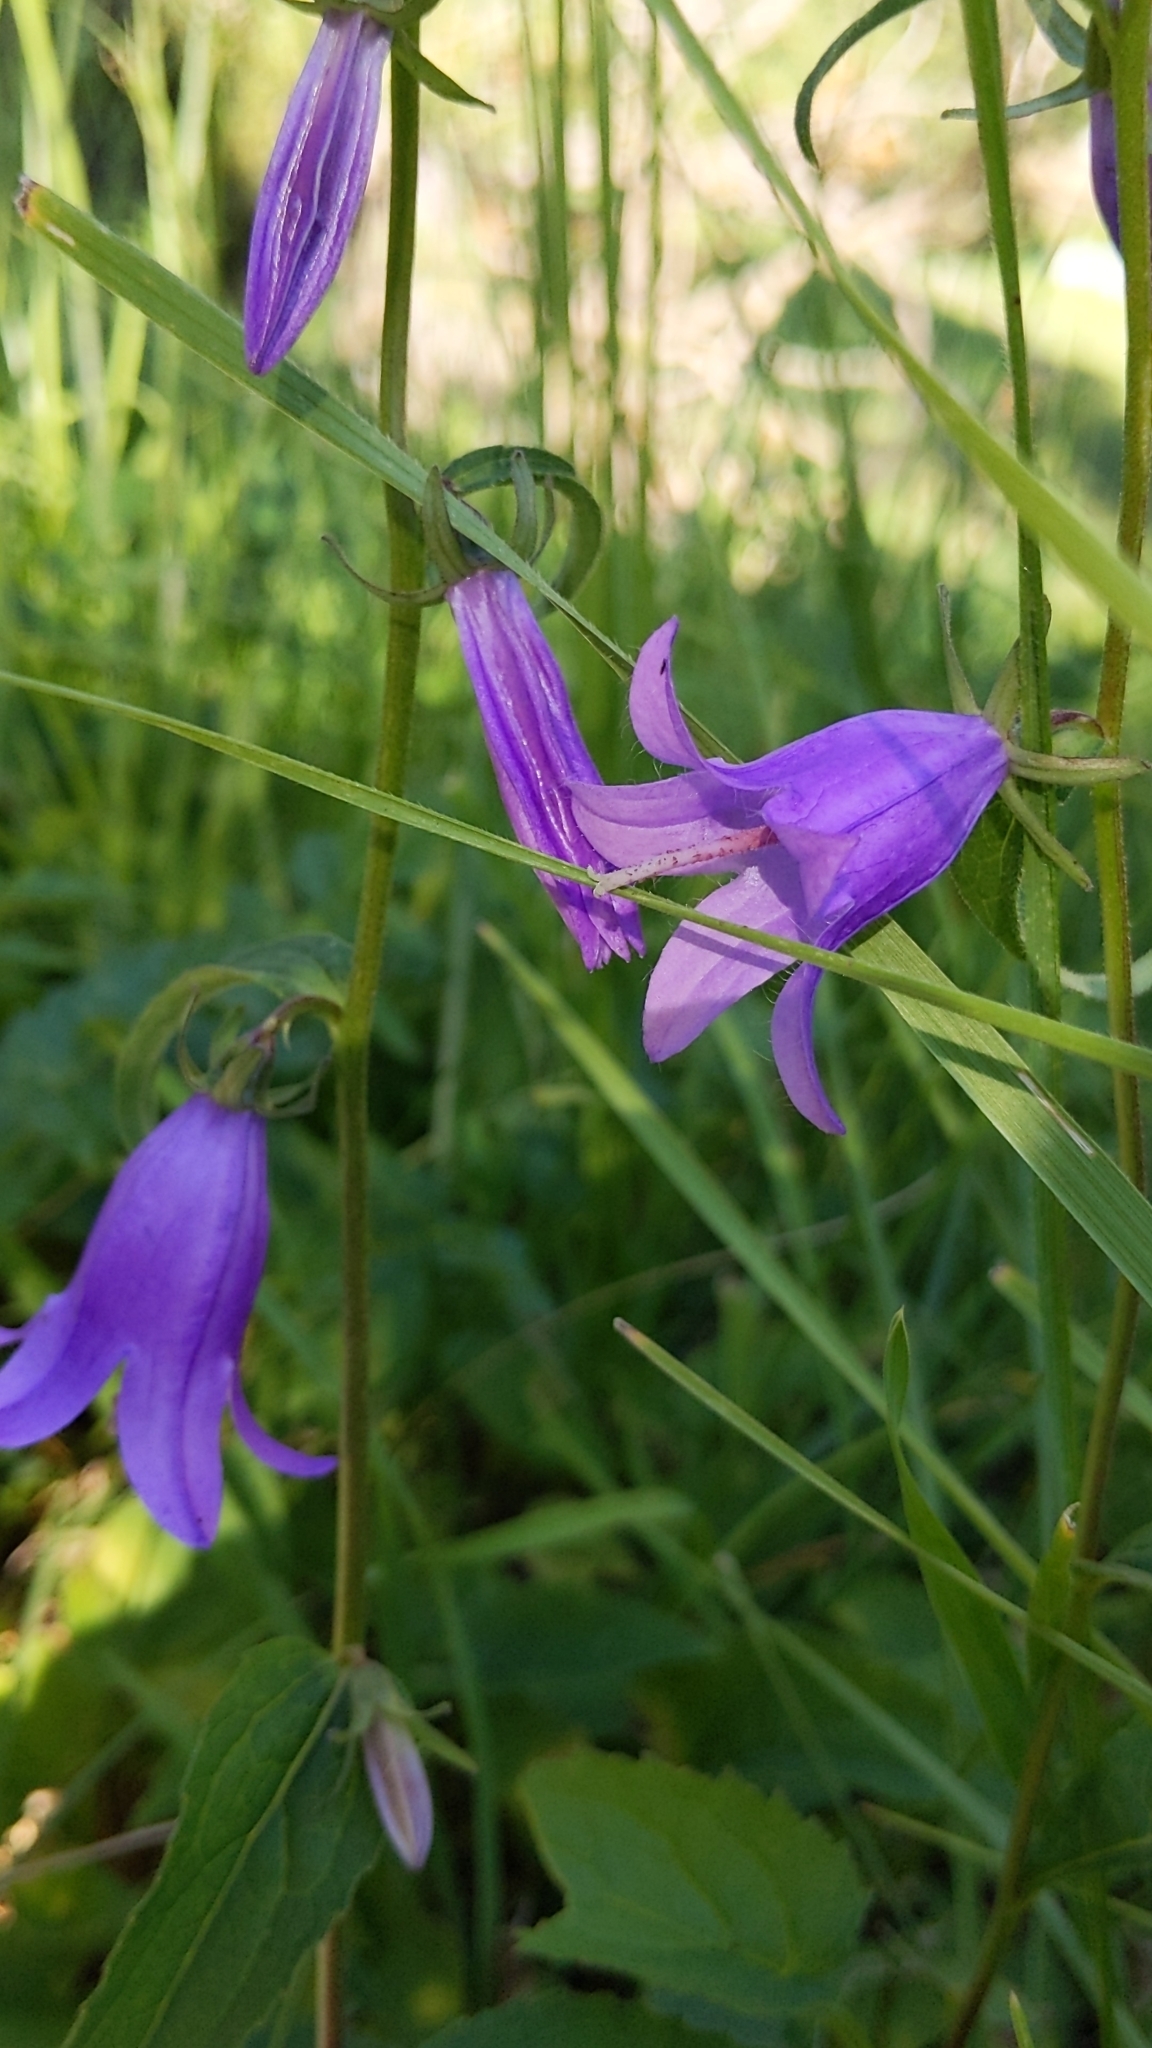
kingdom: Plantae
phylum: Tracheophyta
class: Magnoliopsida
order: Asterales
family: Campanulaceae
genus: Campanula
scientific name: Campanula rapunculoides
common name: Creeping bellflower
